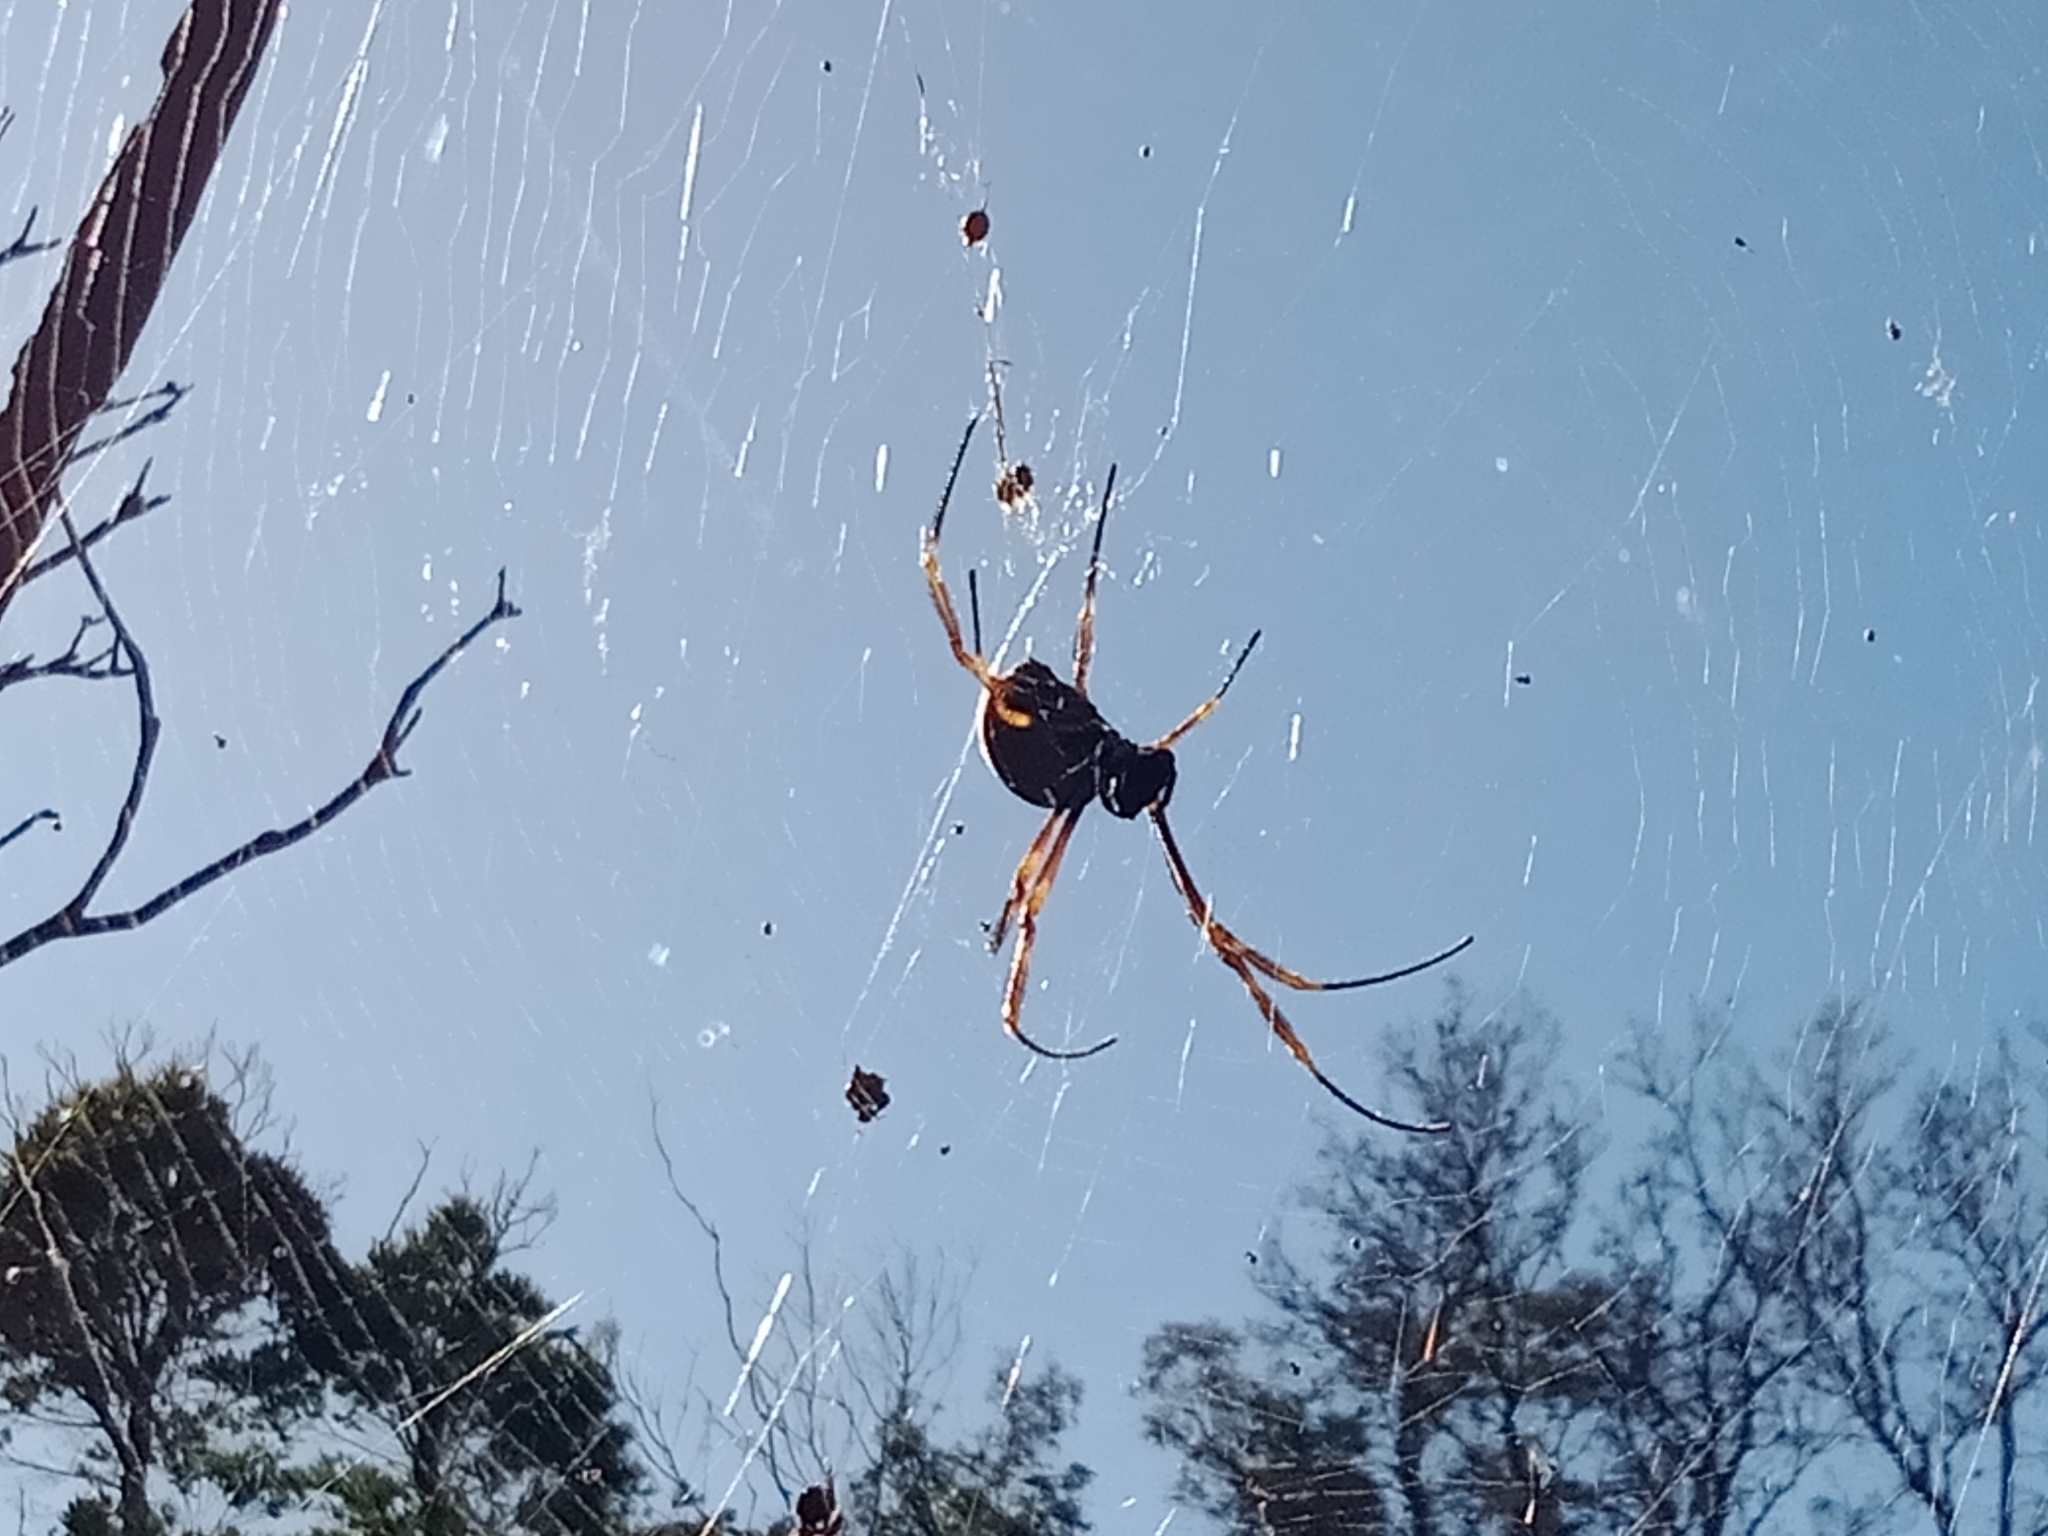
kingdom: Animalia
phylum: Arthropoda
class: Arachnida
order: Araneae
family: Araneidae
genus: Trichonephila
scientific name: Trichonephila plumipes
